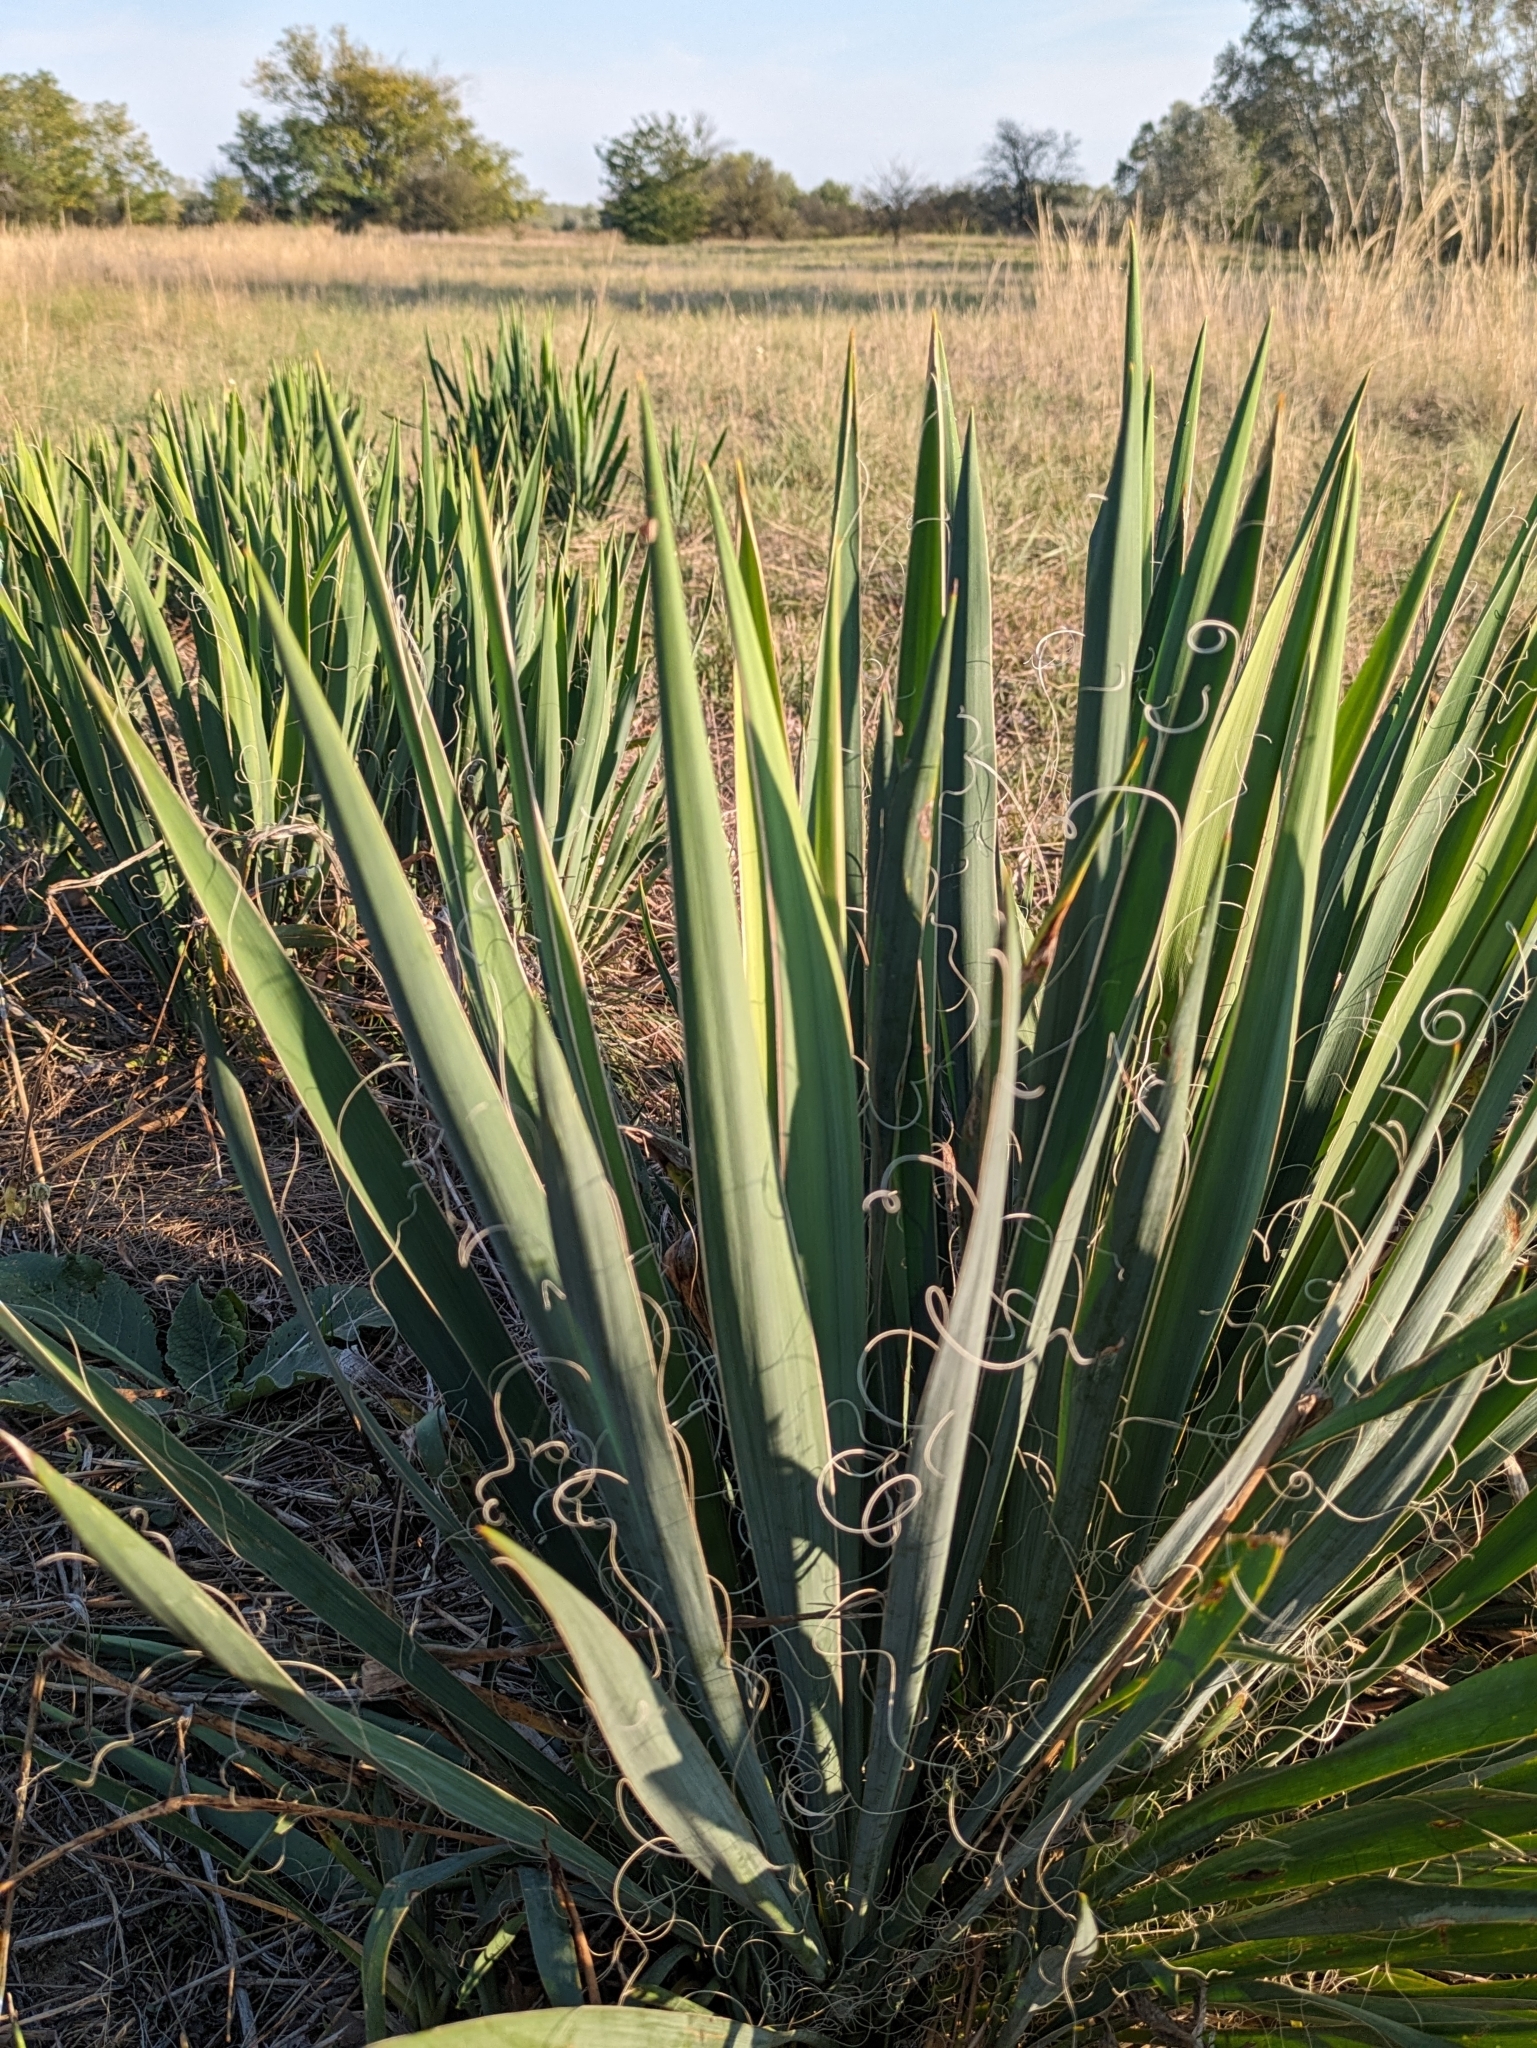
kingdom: Plantae
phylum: Tracheophyta
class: Liliopsida
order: Asparagales
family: Asparagaceae
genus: Yucca
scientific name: Yucca filamentosa
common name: Adam's-needle
